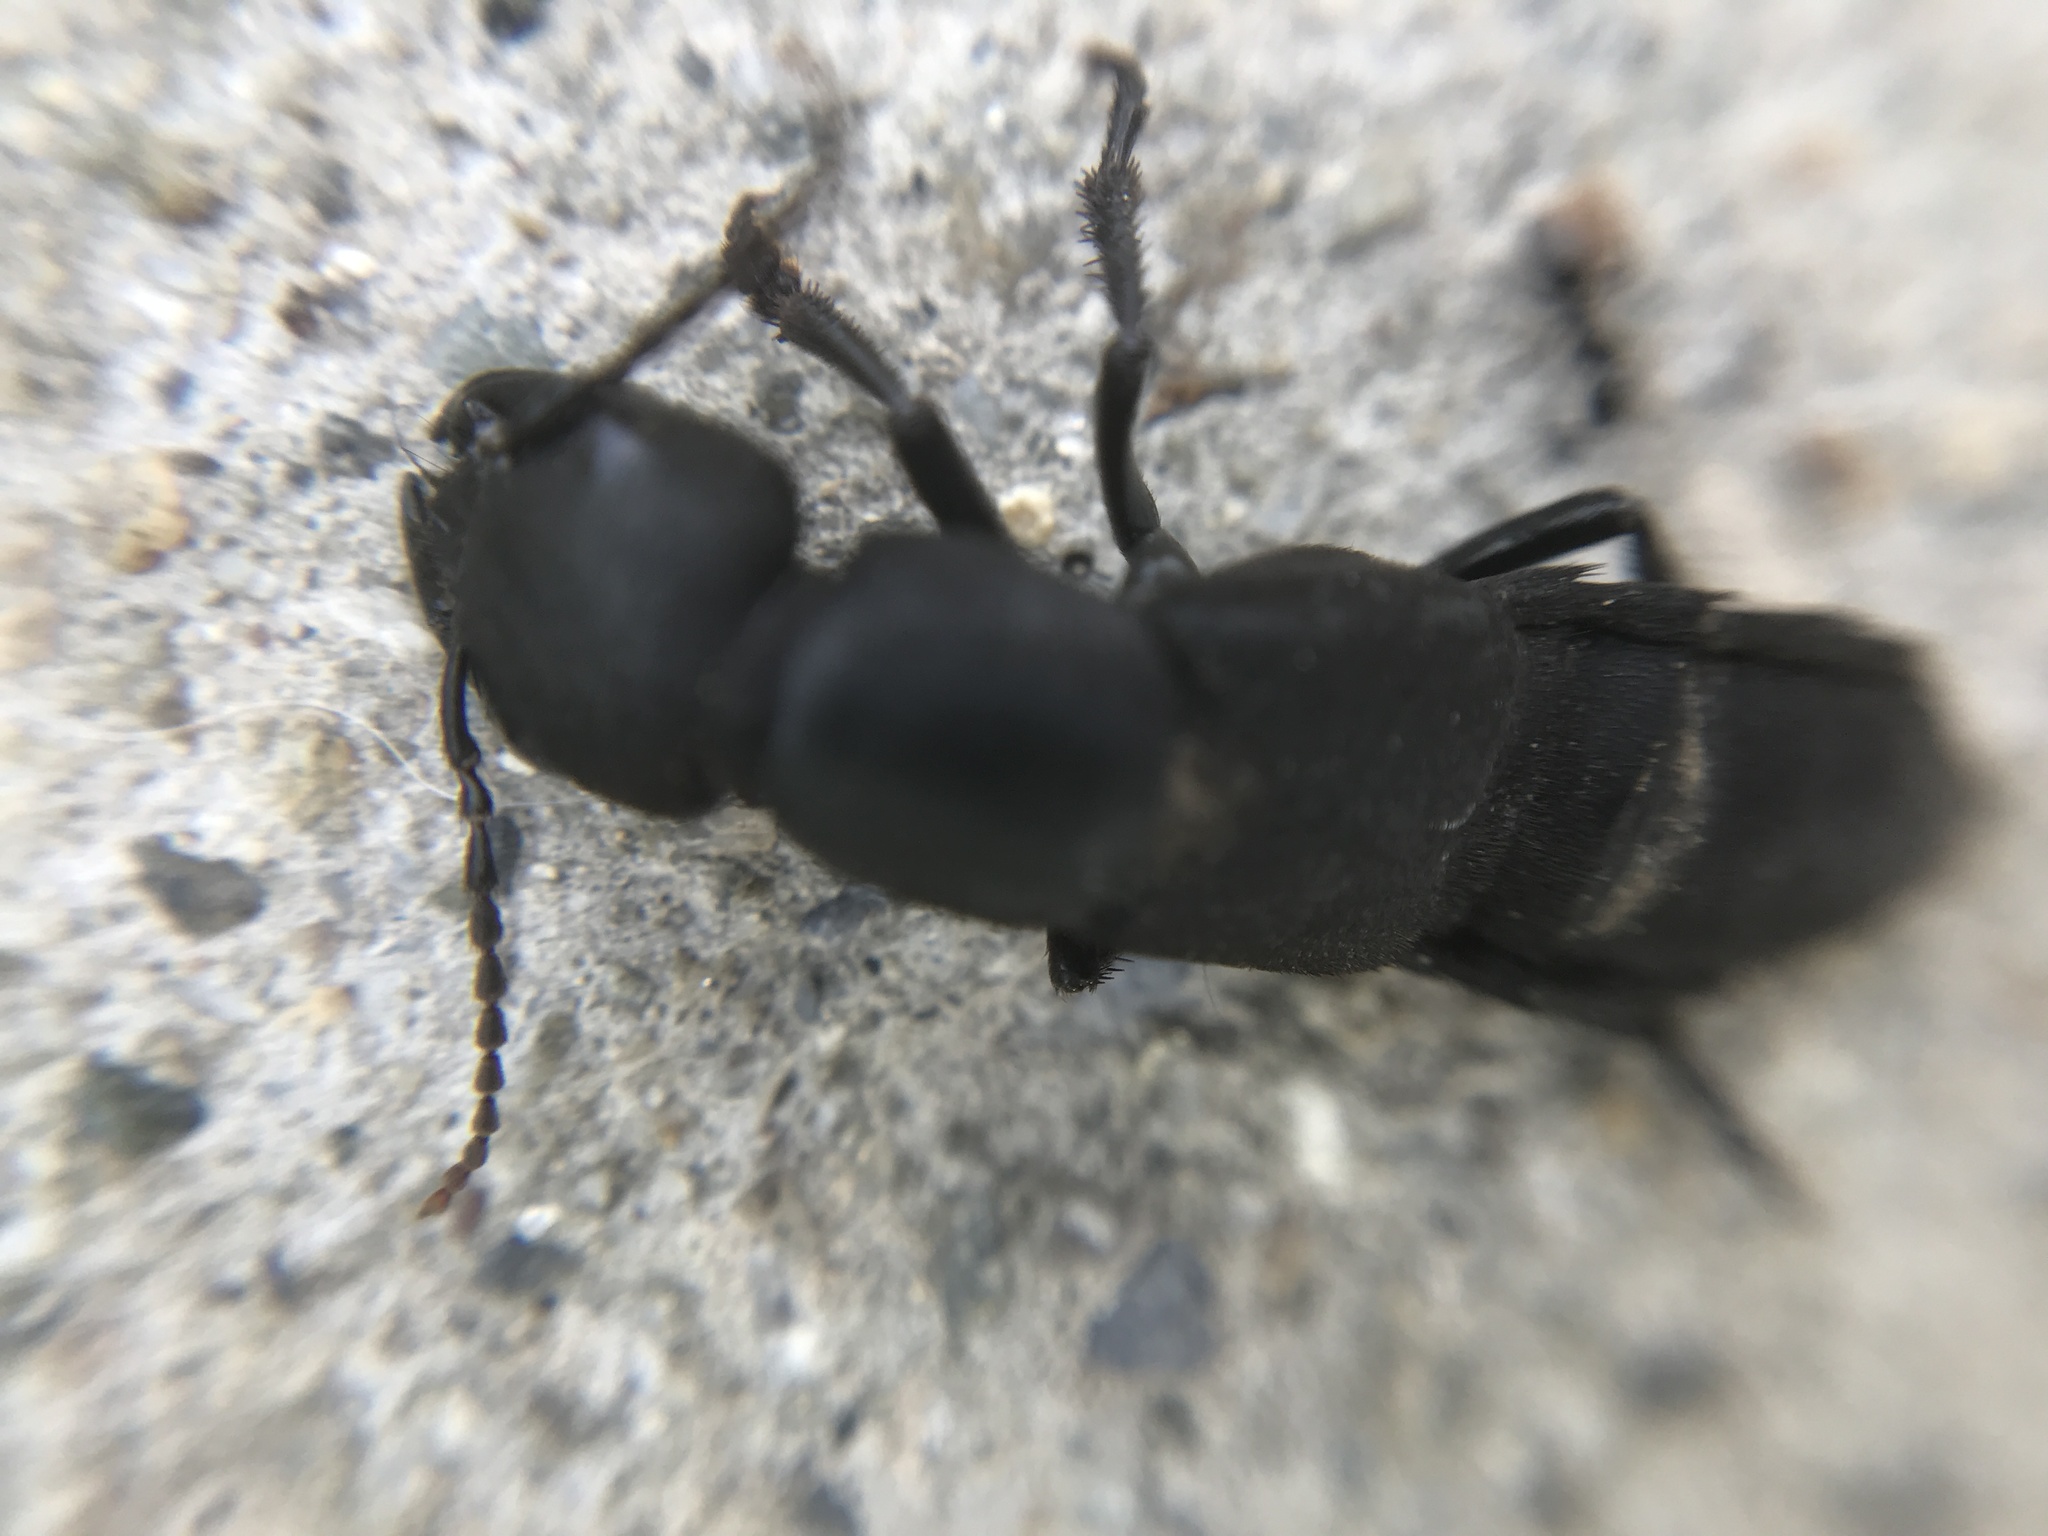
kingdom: Animalia
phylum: Arthropoda
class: Insecta
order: Coleoptera
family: Staphylinidae
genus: Ocypus
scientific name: Ocypus olens
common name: Devil's coach-horse
